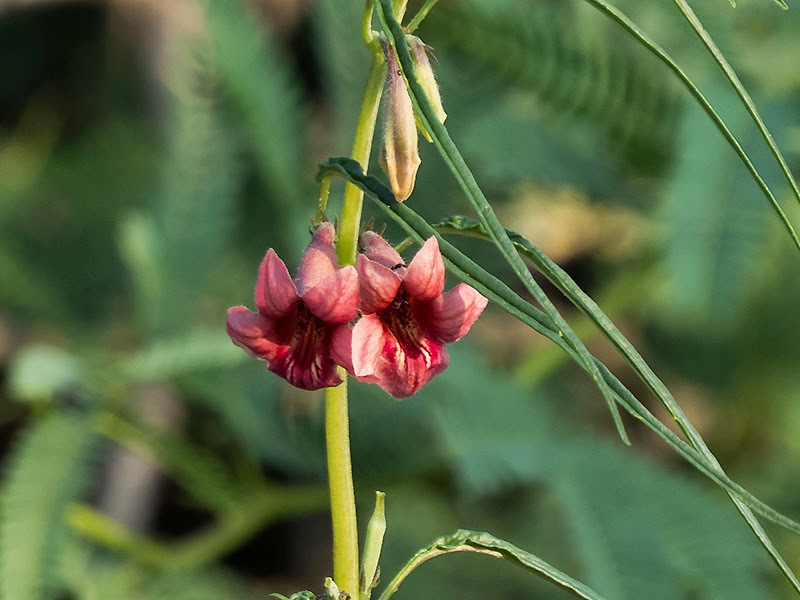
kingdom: Plantae
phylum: Tracheophyta
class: Magnoliopsida
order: Lamiales
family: Pedaliaceae
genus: Sesamum
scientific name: Sesamum alatum
